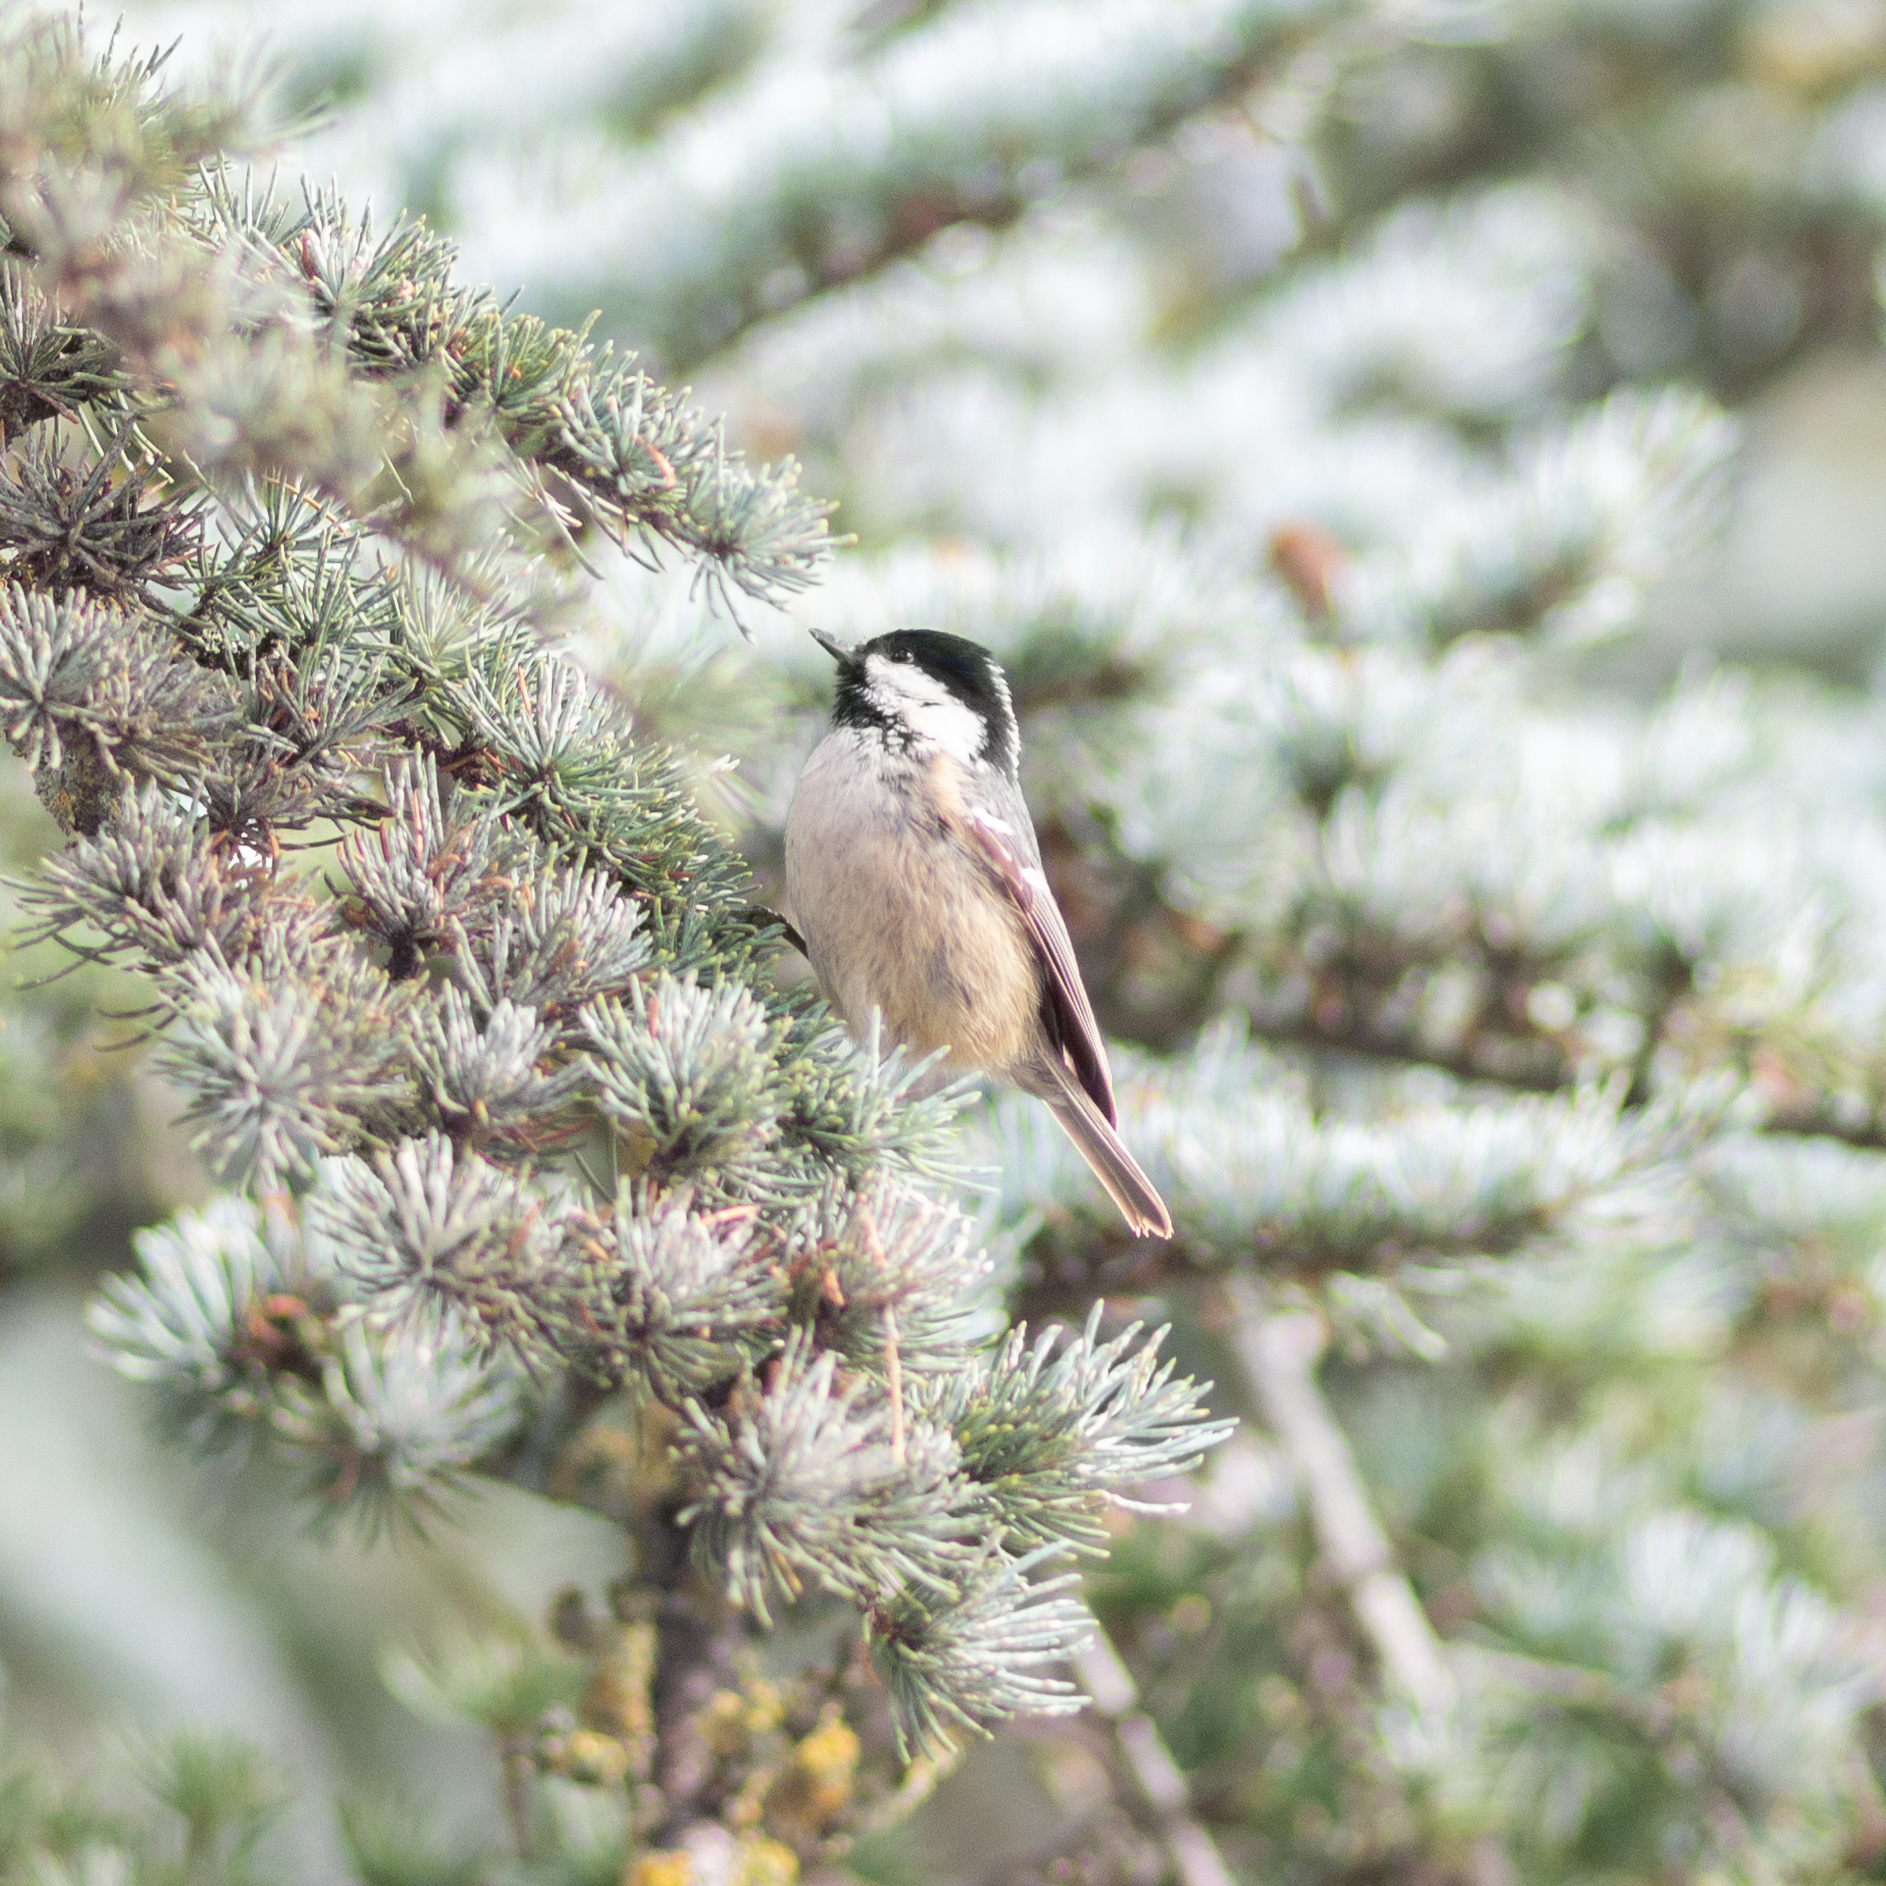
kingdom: Animalia
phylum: Chordata
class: Aves
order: Passeriformes
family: Paridae
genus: Periparus
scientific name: Periparus ater
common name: Coal tit
